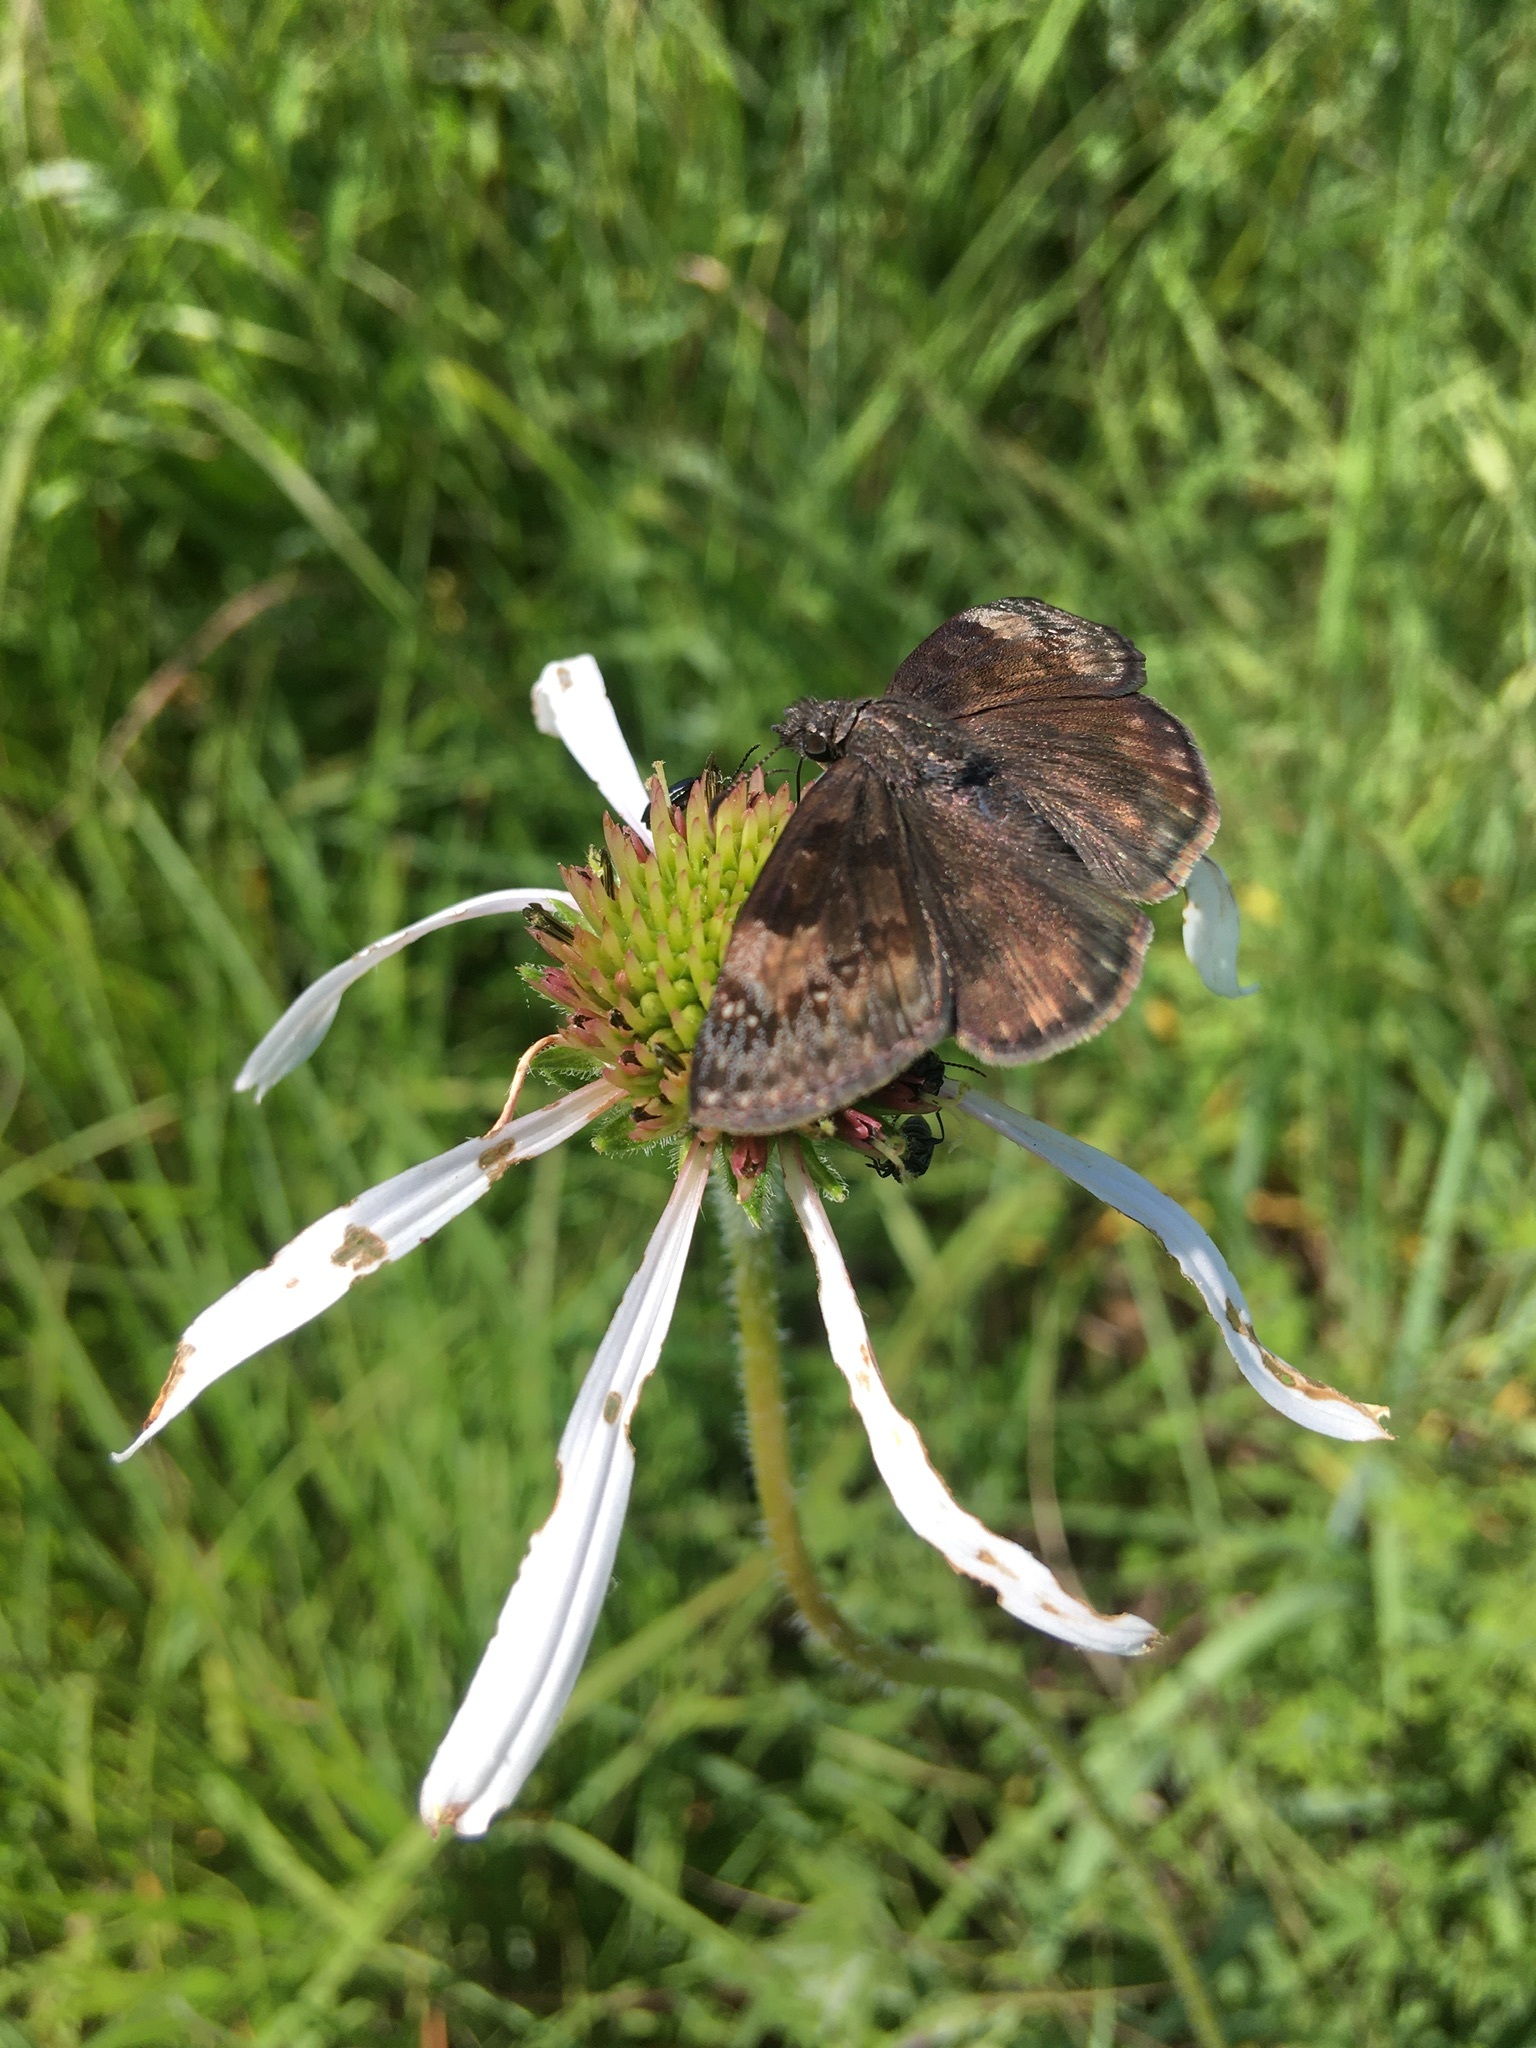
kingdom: Animalia
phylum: Arthropoda
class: Insecta
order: Lepidoptera
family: Hesperiidae
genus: Erynnis
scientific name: Erynnis baptisiae
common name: Wild indigo duskywing
